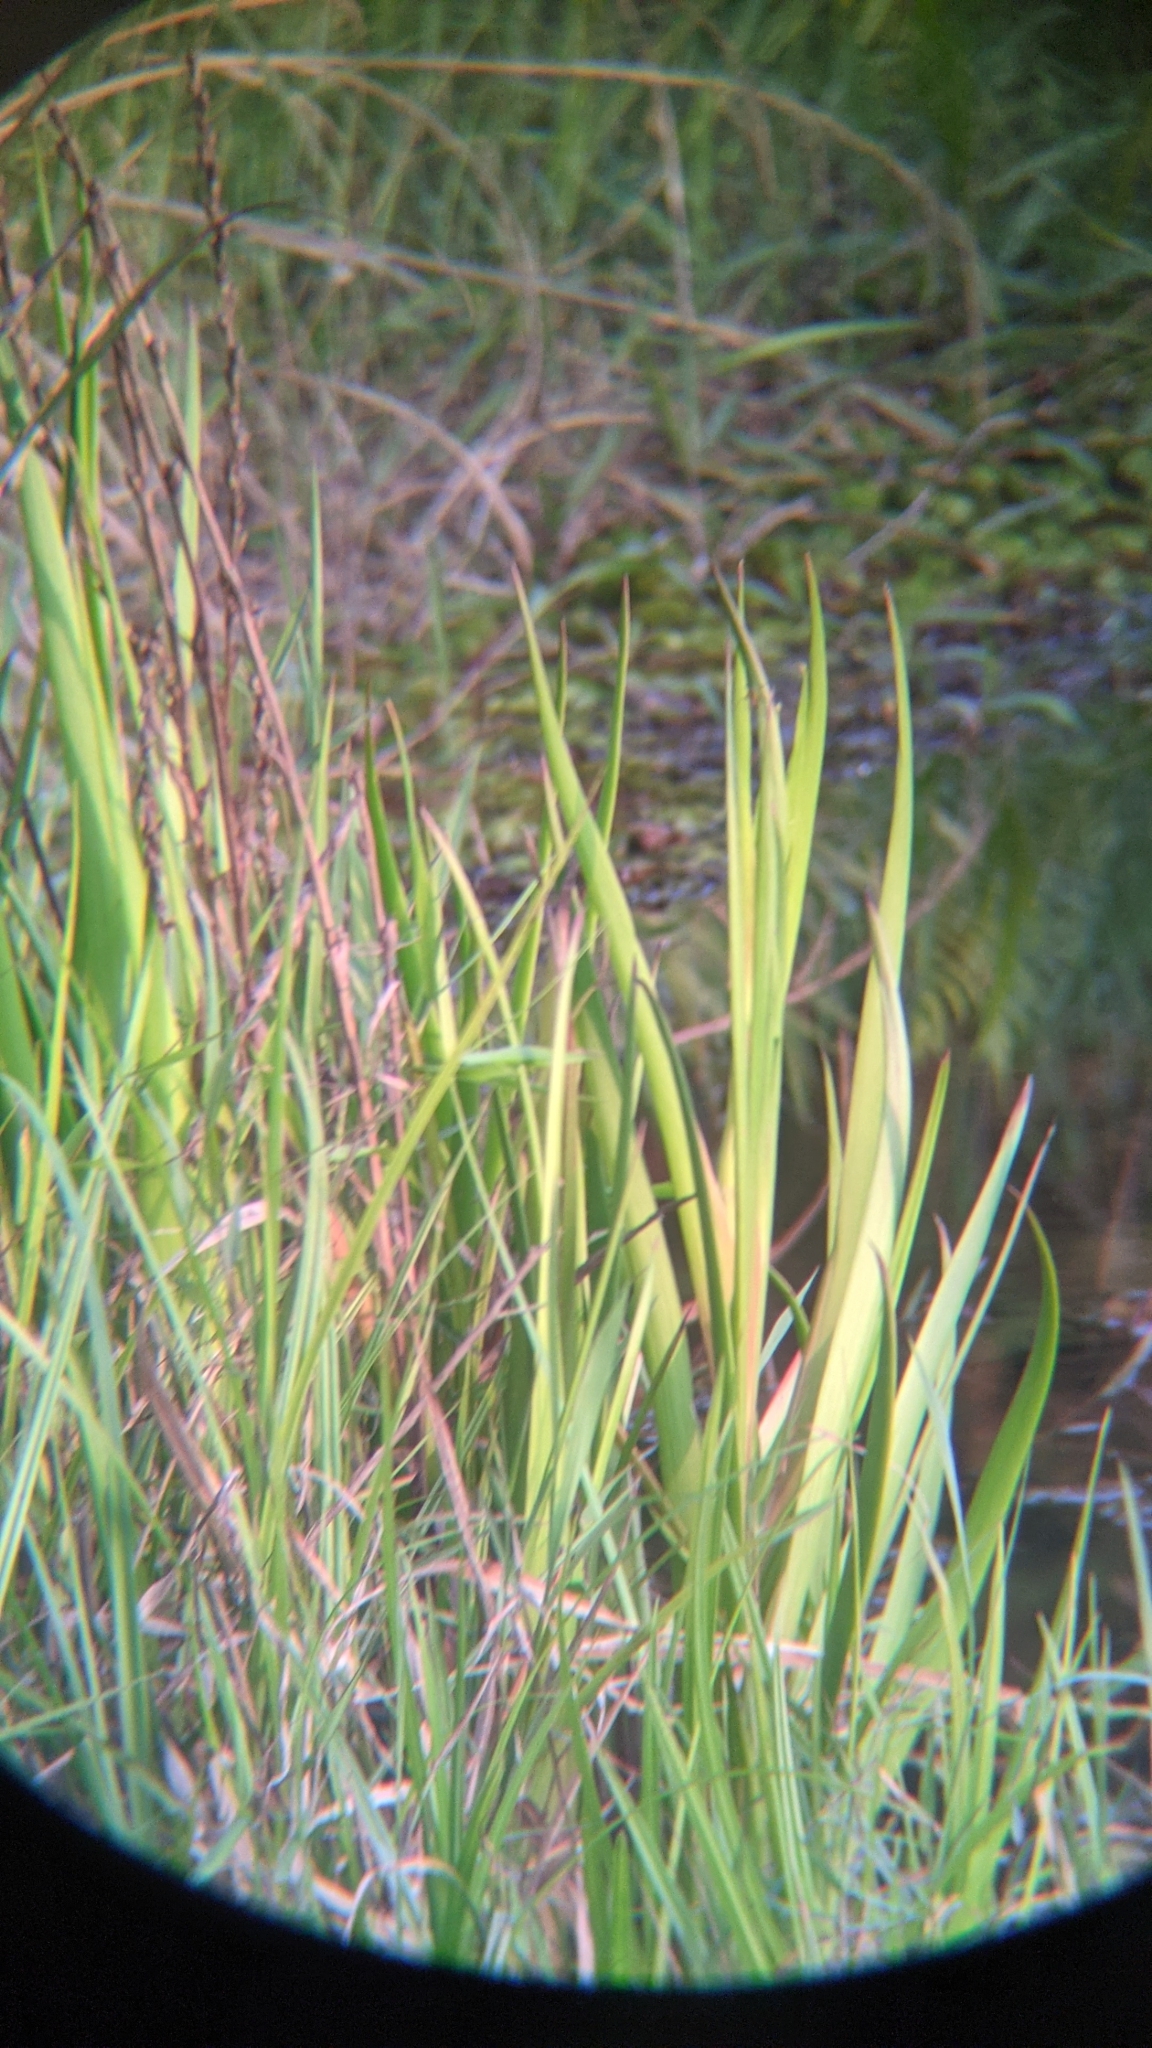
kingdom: Plantae
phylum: Tracheophyta
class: Liliopsida
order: Commelinales
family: Philydraceae
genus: Philydrum
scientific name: Philydrum lanuginosum
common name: Woolly frog's mouth
